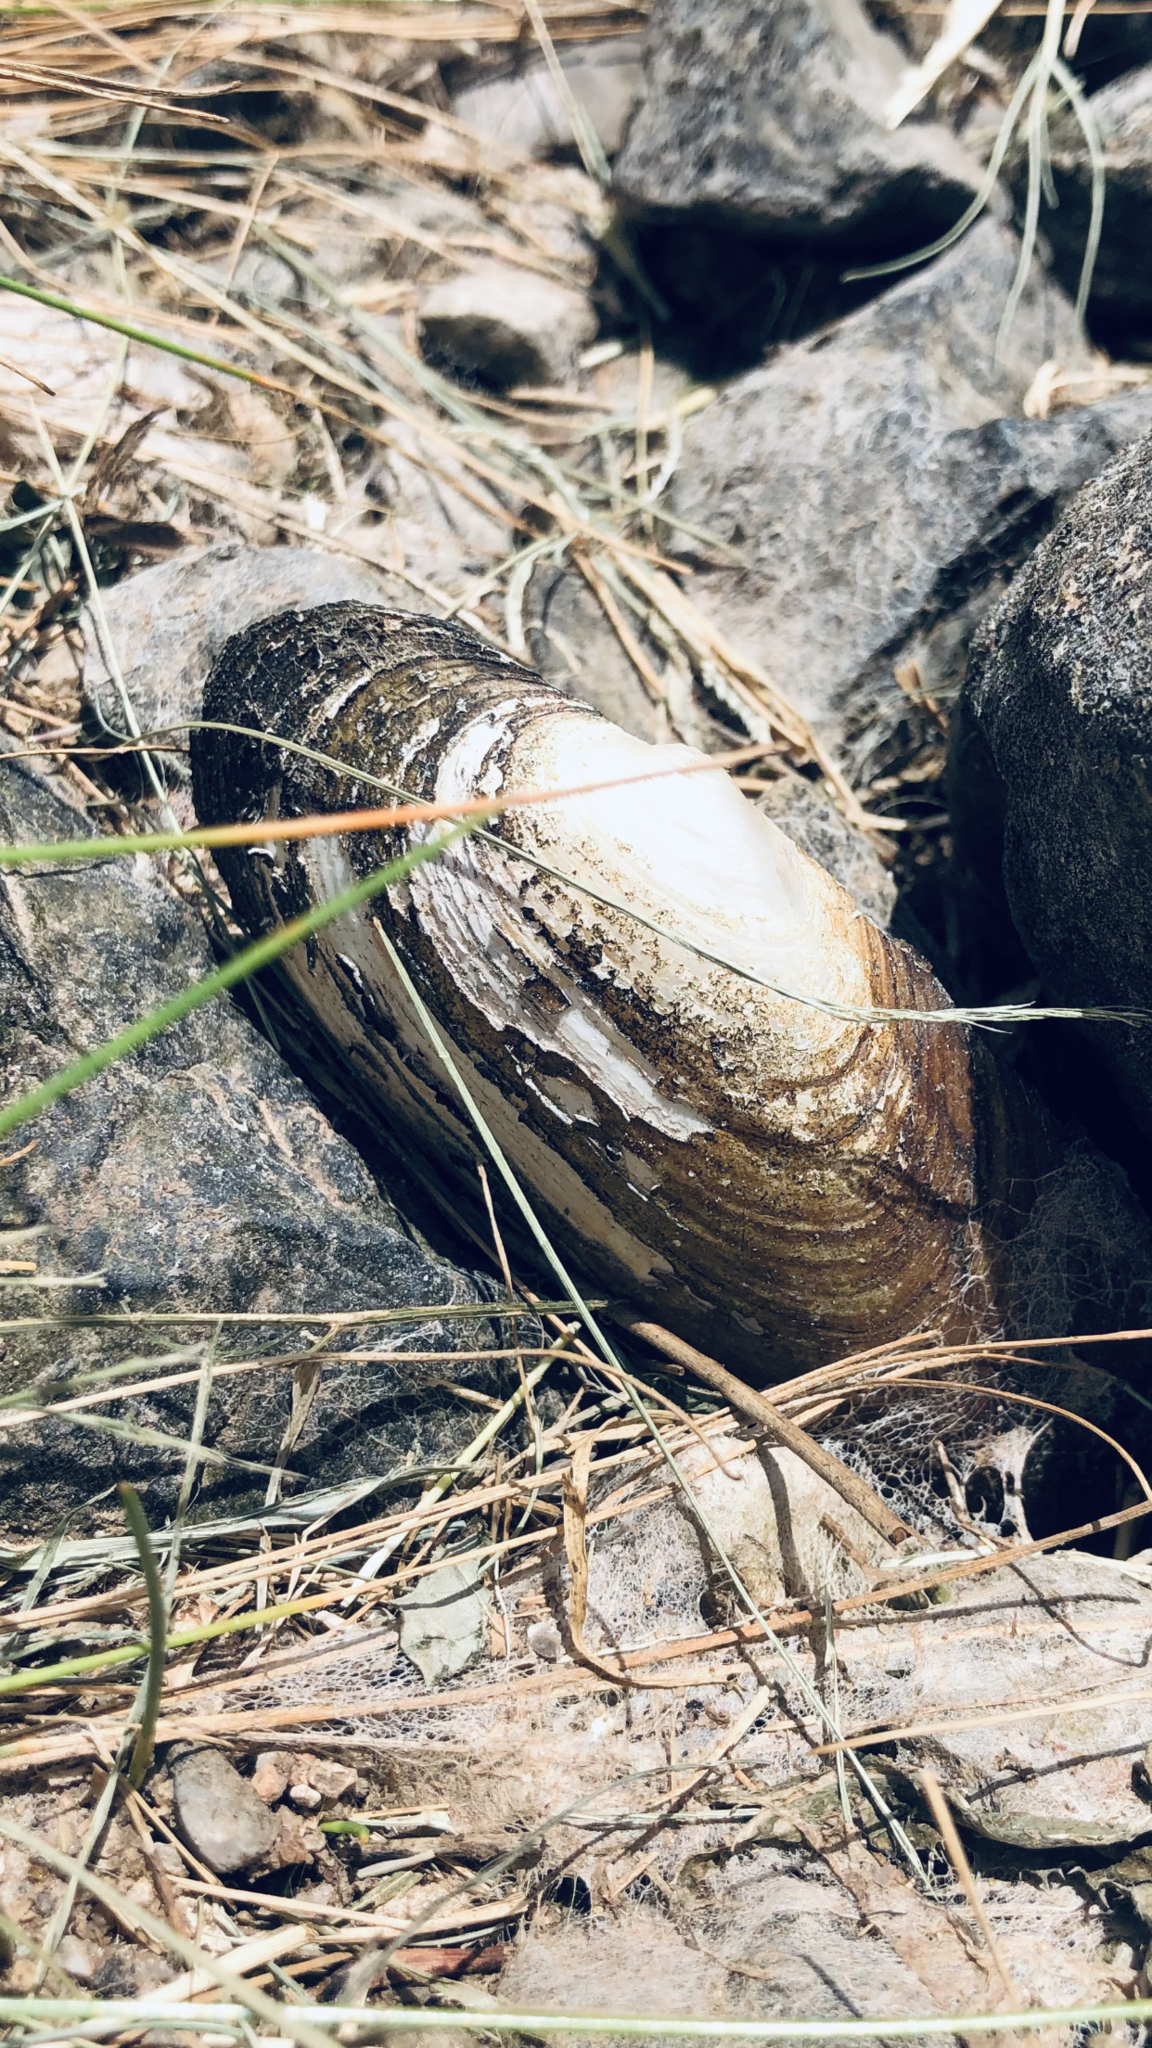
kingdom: Animalia
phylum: Mollusca
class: Bivalvia
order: Unionida
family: Unionidae
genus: Uniomerus
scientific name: Uniomerus tetralasmus
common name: Pondhorn
